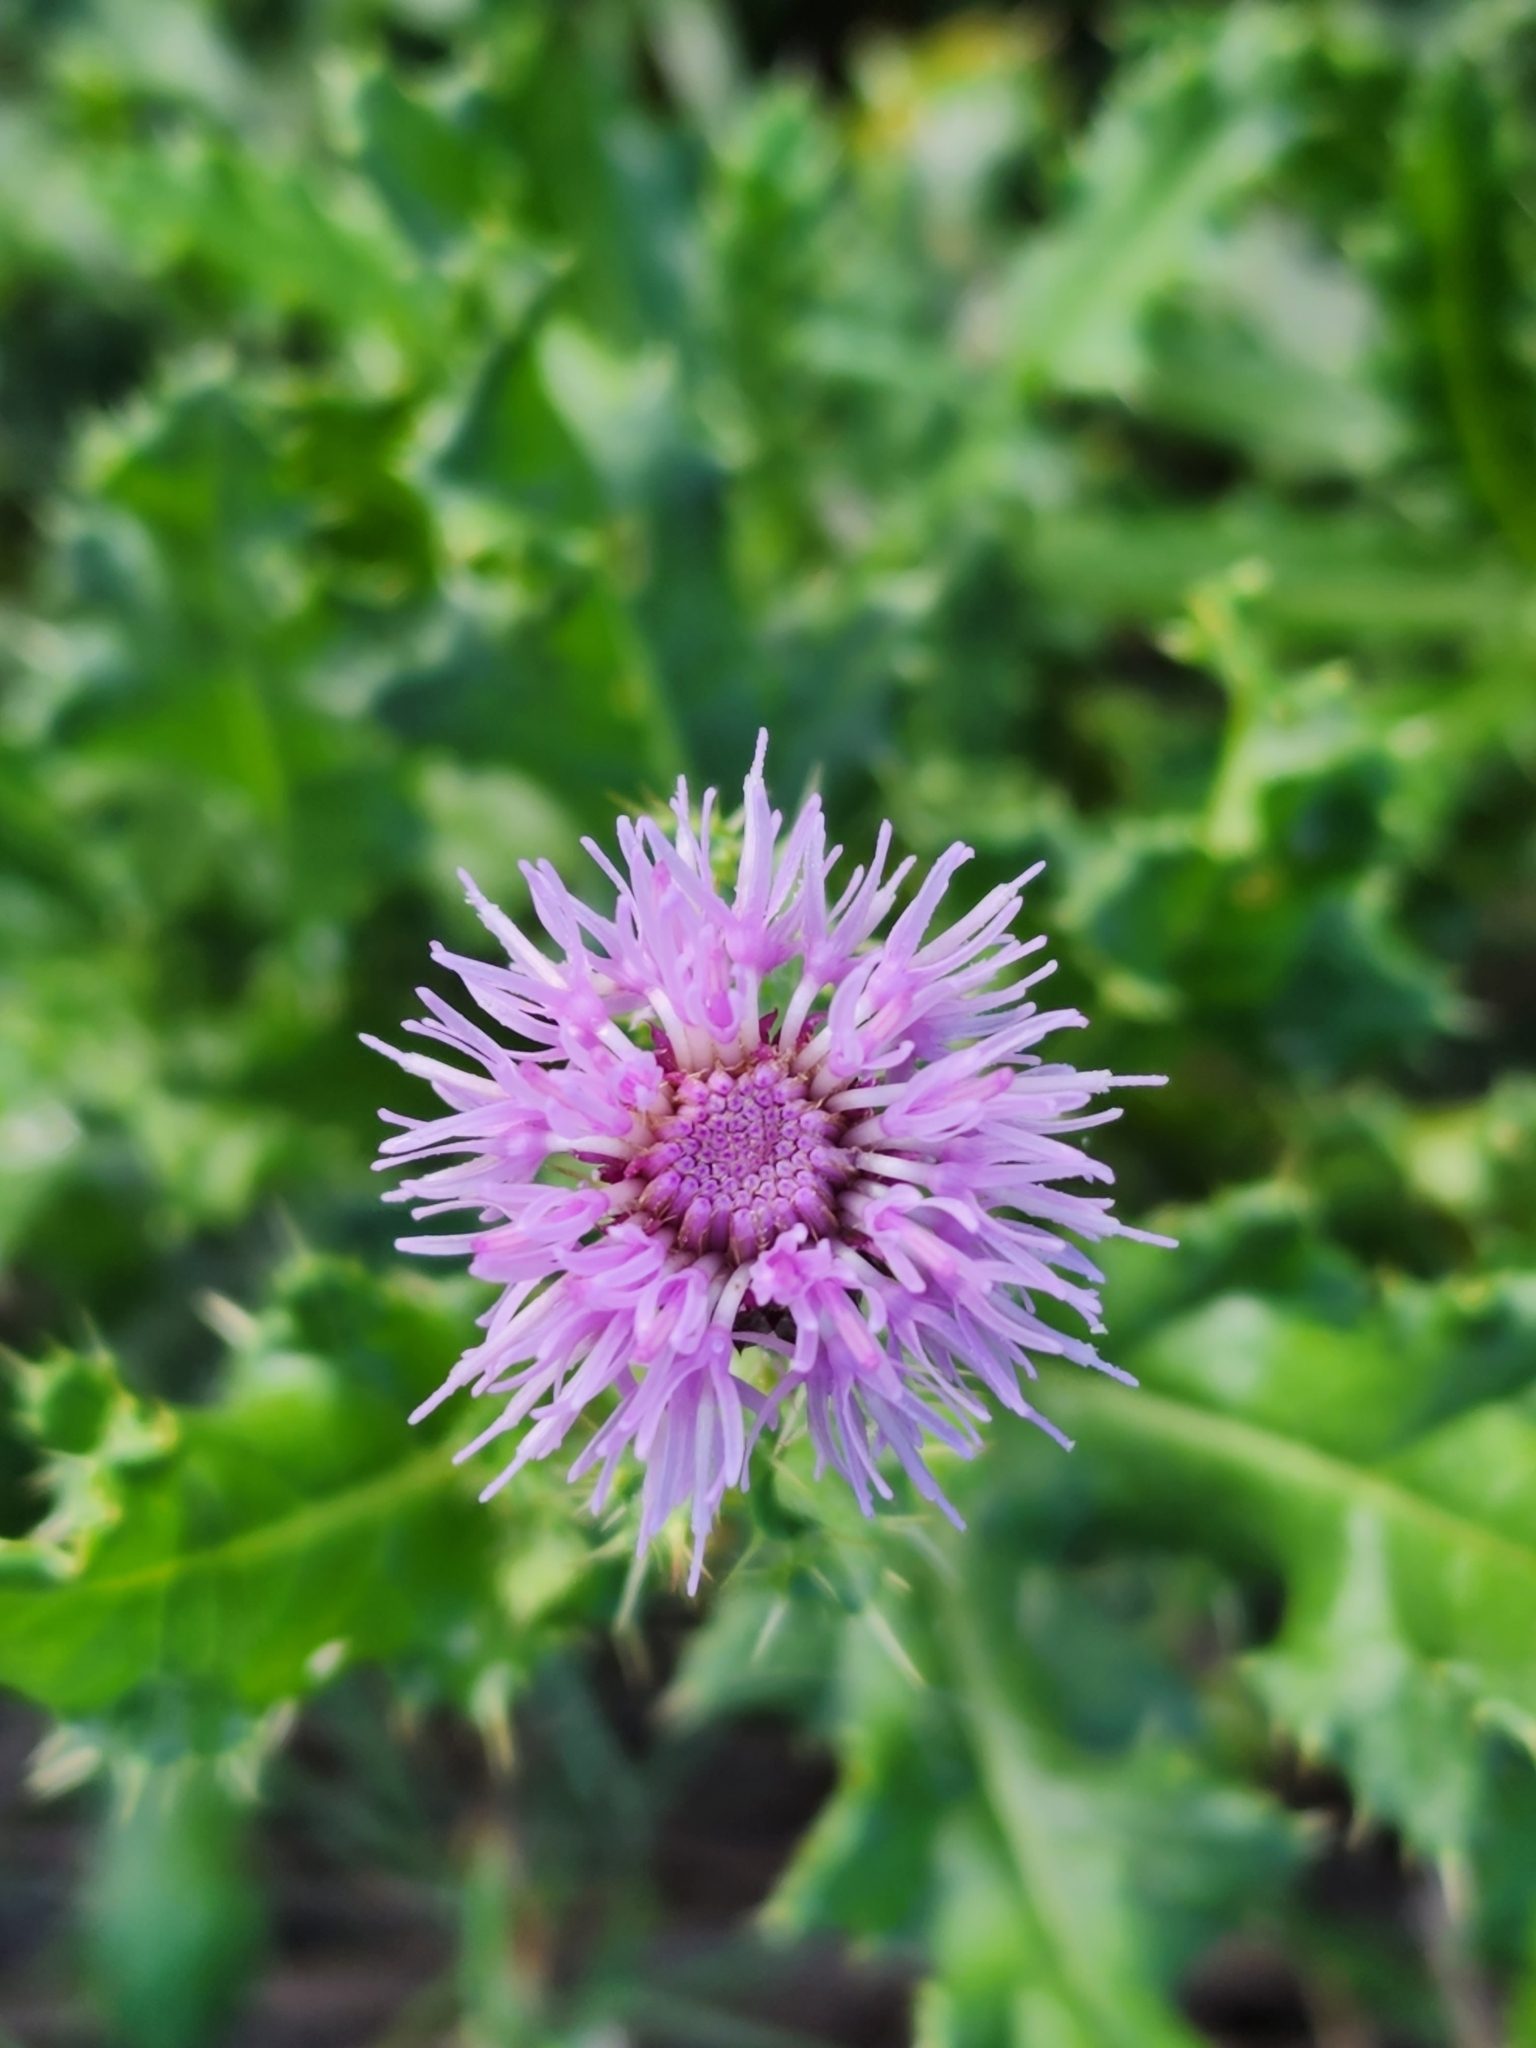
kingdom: Plantae
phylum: Tracheophyta
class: Magnoliopsida
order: Asterales
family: Asteraceae
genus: Cirsium
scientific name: Cirsium arvense
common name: Creeping thistle
